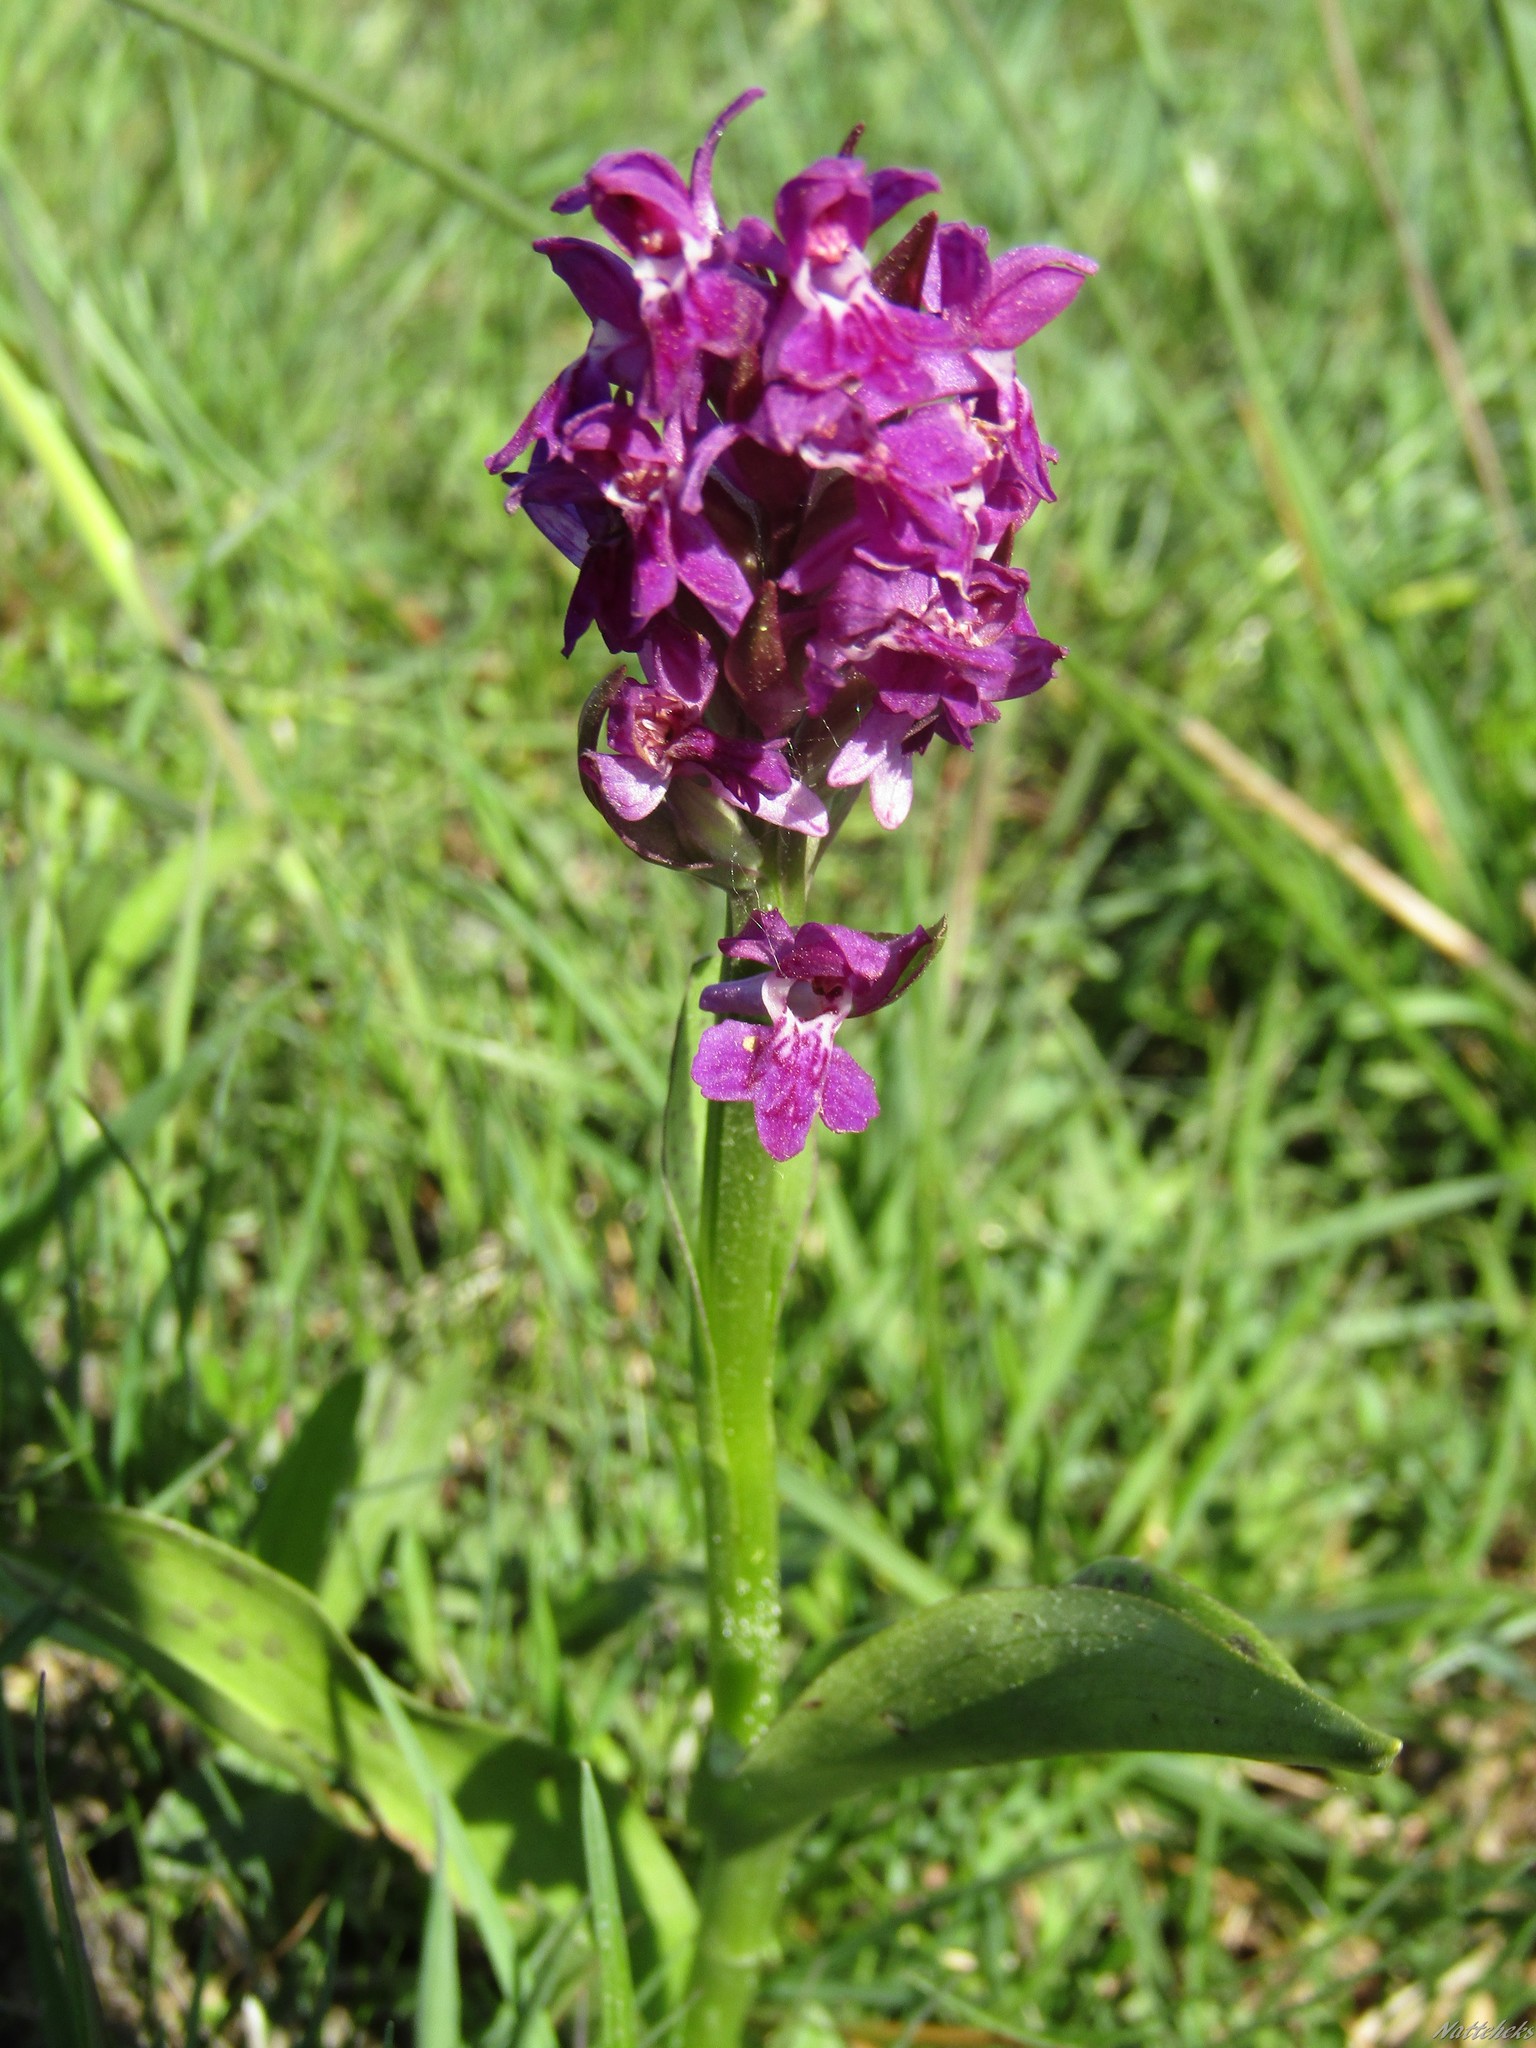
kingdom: Plantae
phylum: Tracheophyta
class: Liliopsida
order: Asparagales
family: Orchidaceae
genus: Dactylorhiza
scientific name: Dactylorhiza majalis
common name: Marsh orchid
